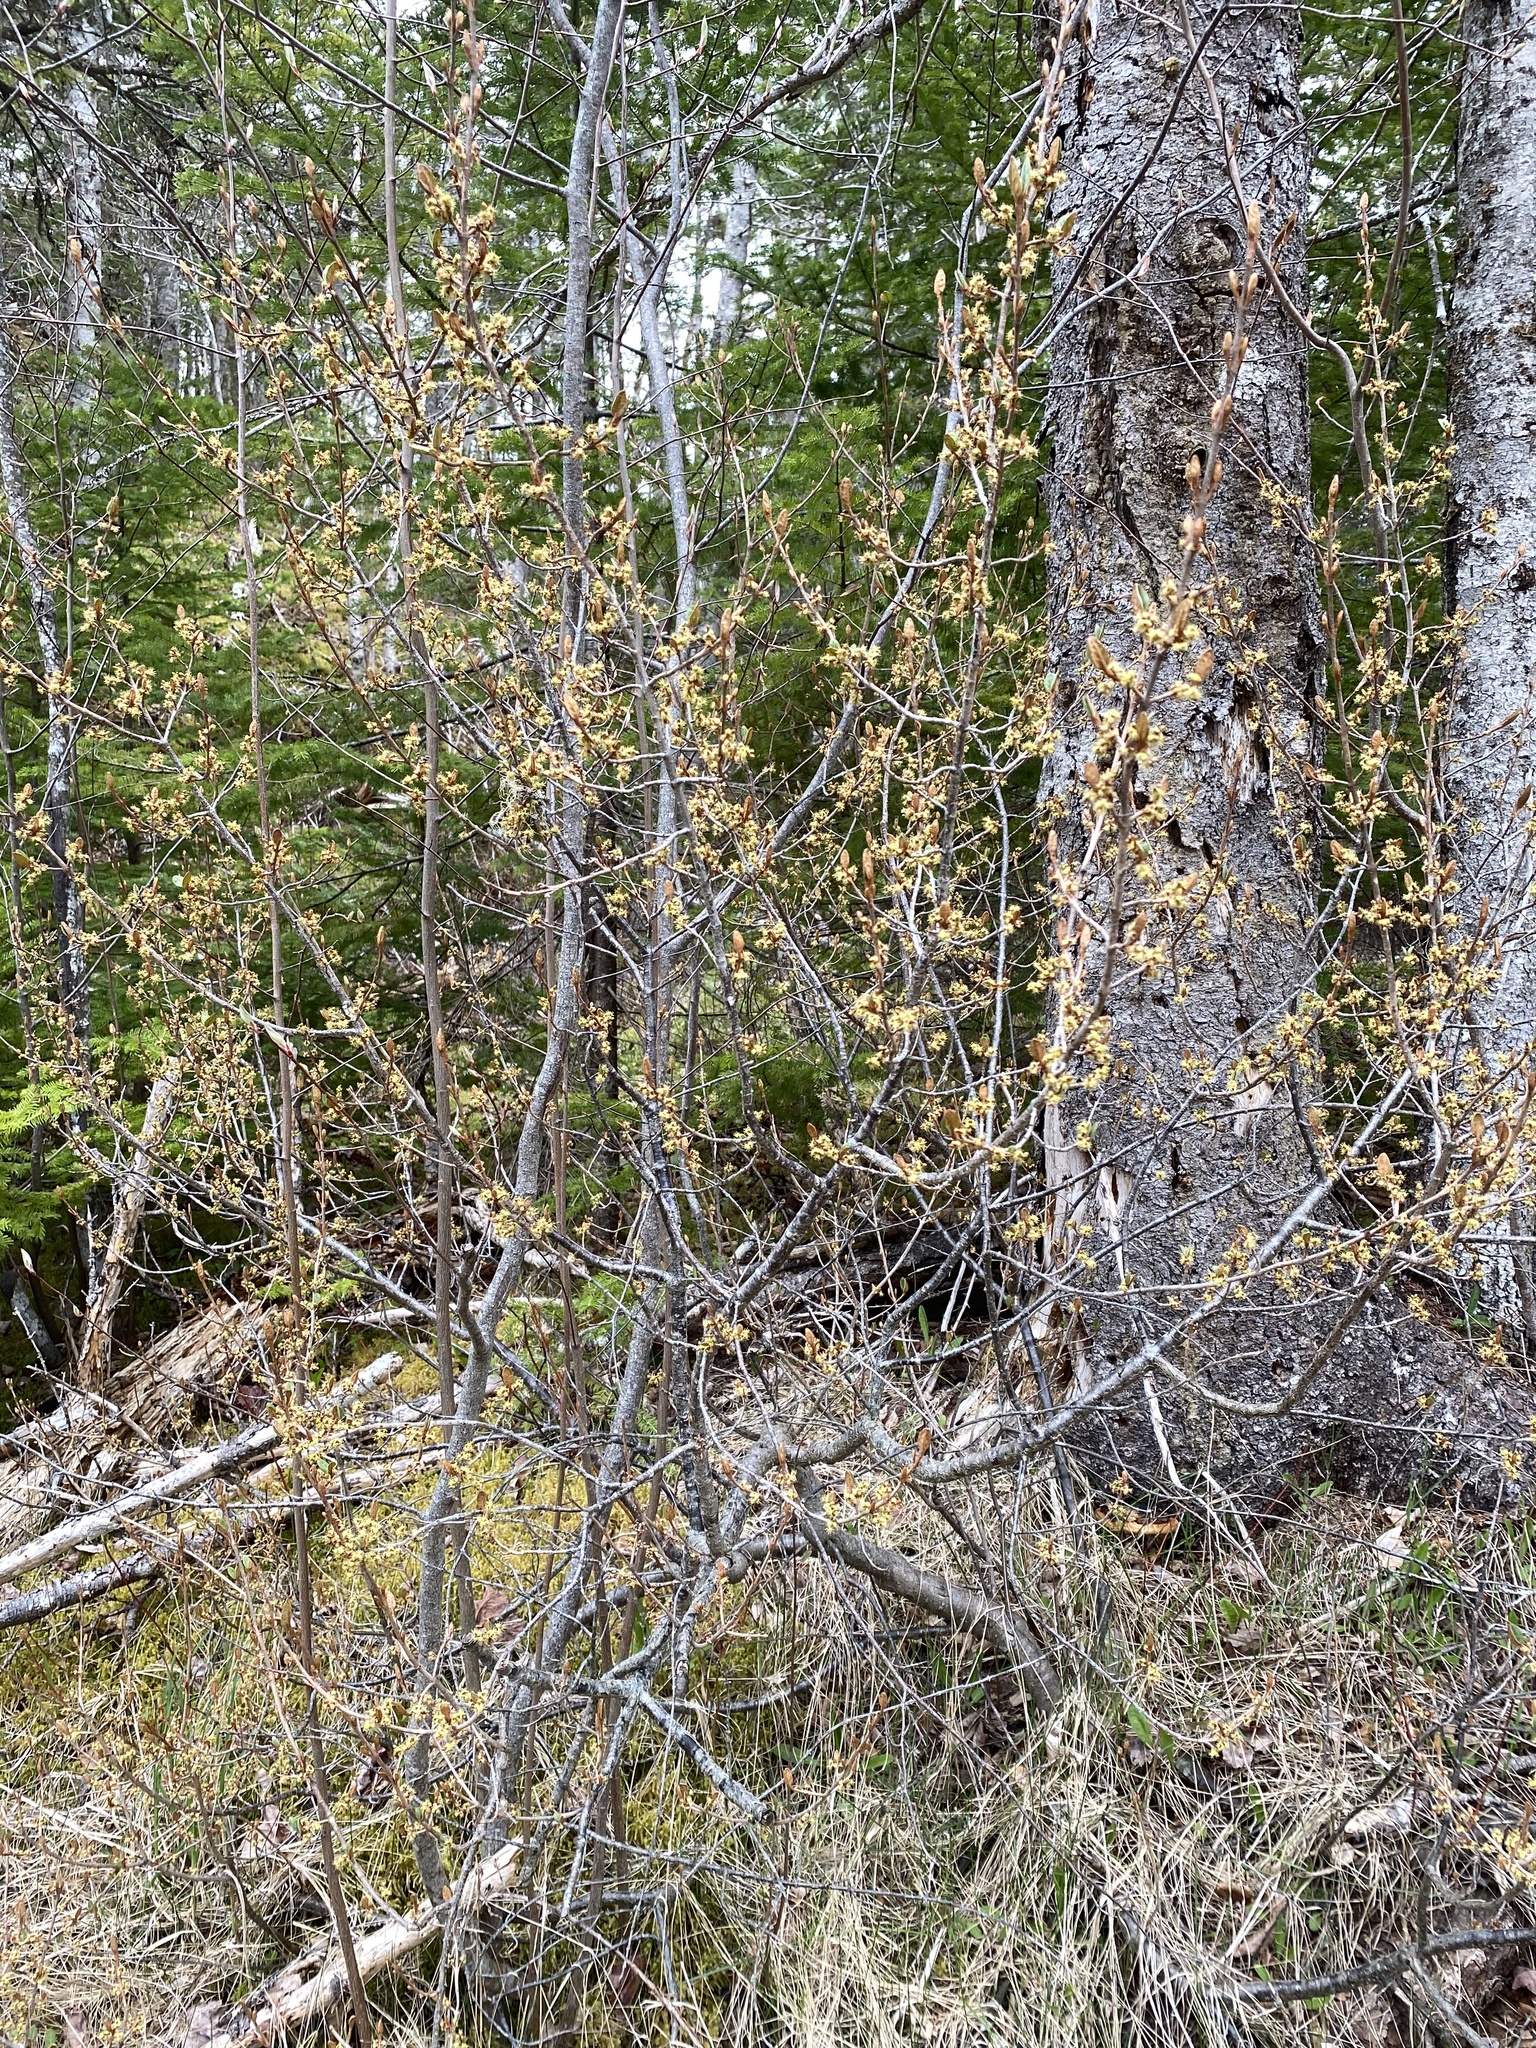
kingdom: Plantae
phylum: Tracheophyta
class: Magnoliopsida
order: Rosales
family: Elaeagnaceae
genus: Shepherdia
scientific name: Shepherdia canadensis
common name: Soapberry
